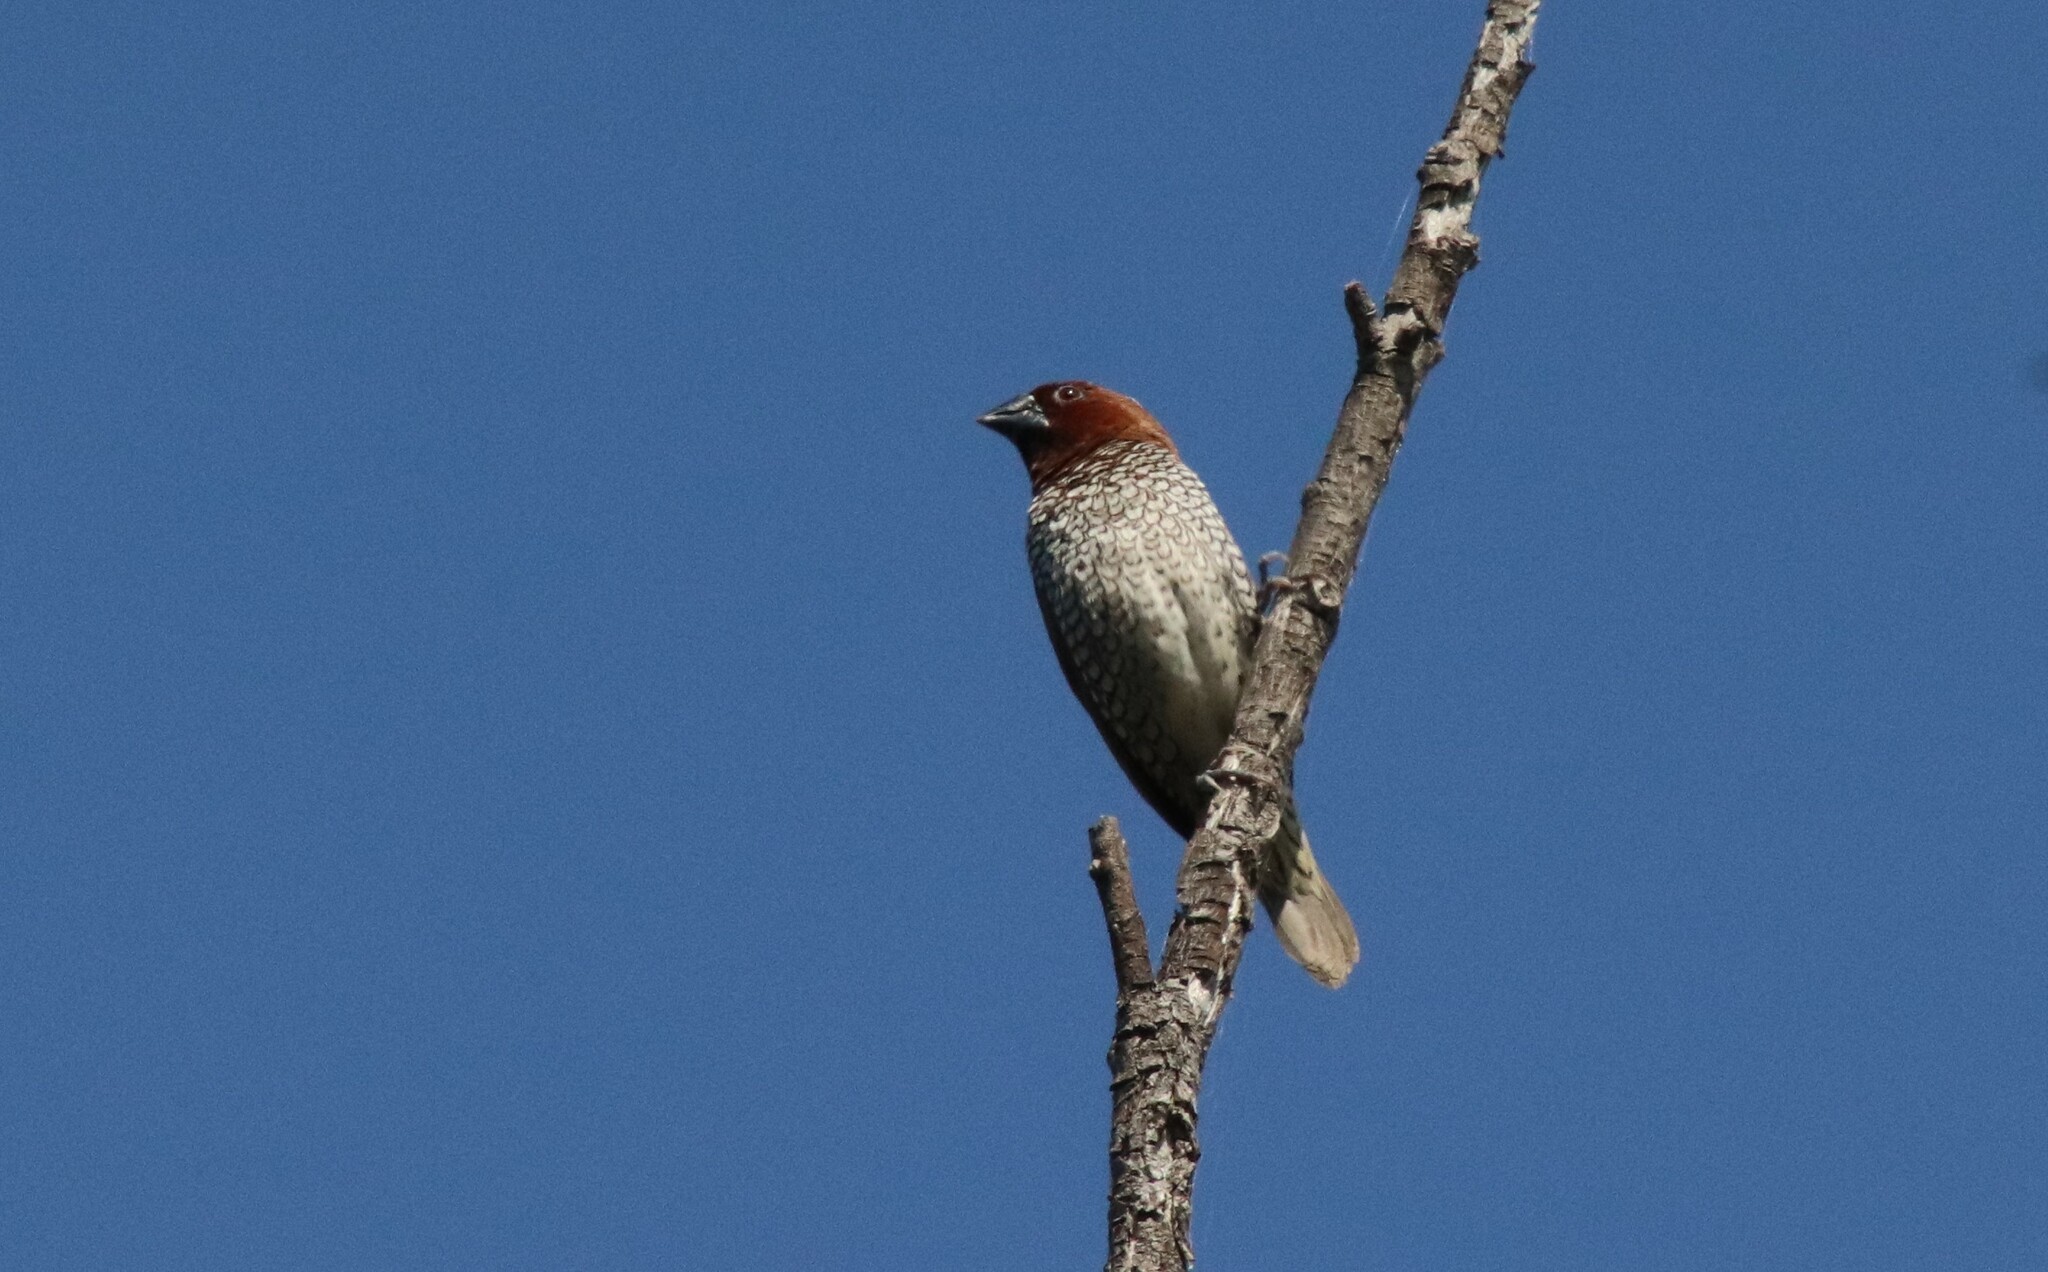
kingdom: Animalia
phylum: Chordata
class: Aves
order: Passeriformes
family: Estrildidae
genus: Lonchura
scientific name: Lonchura punctulata
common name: Scaly-breasted munia
